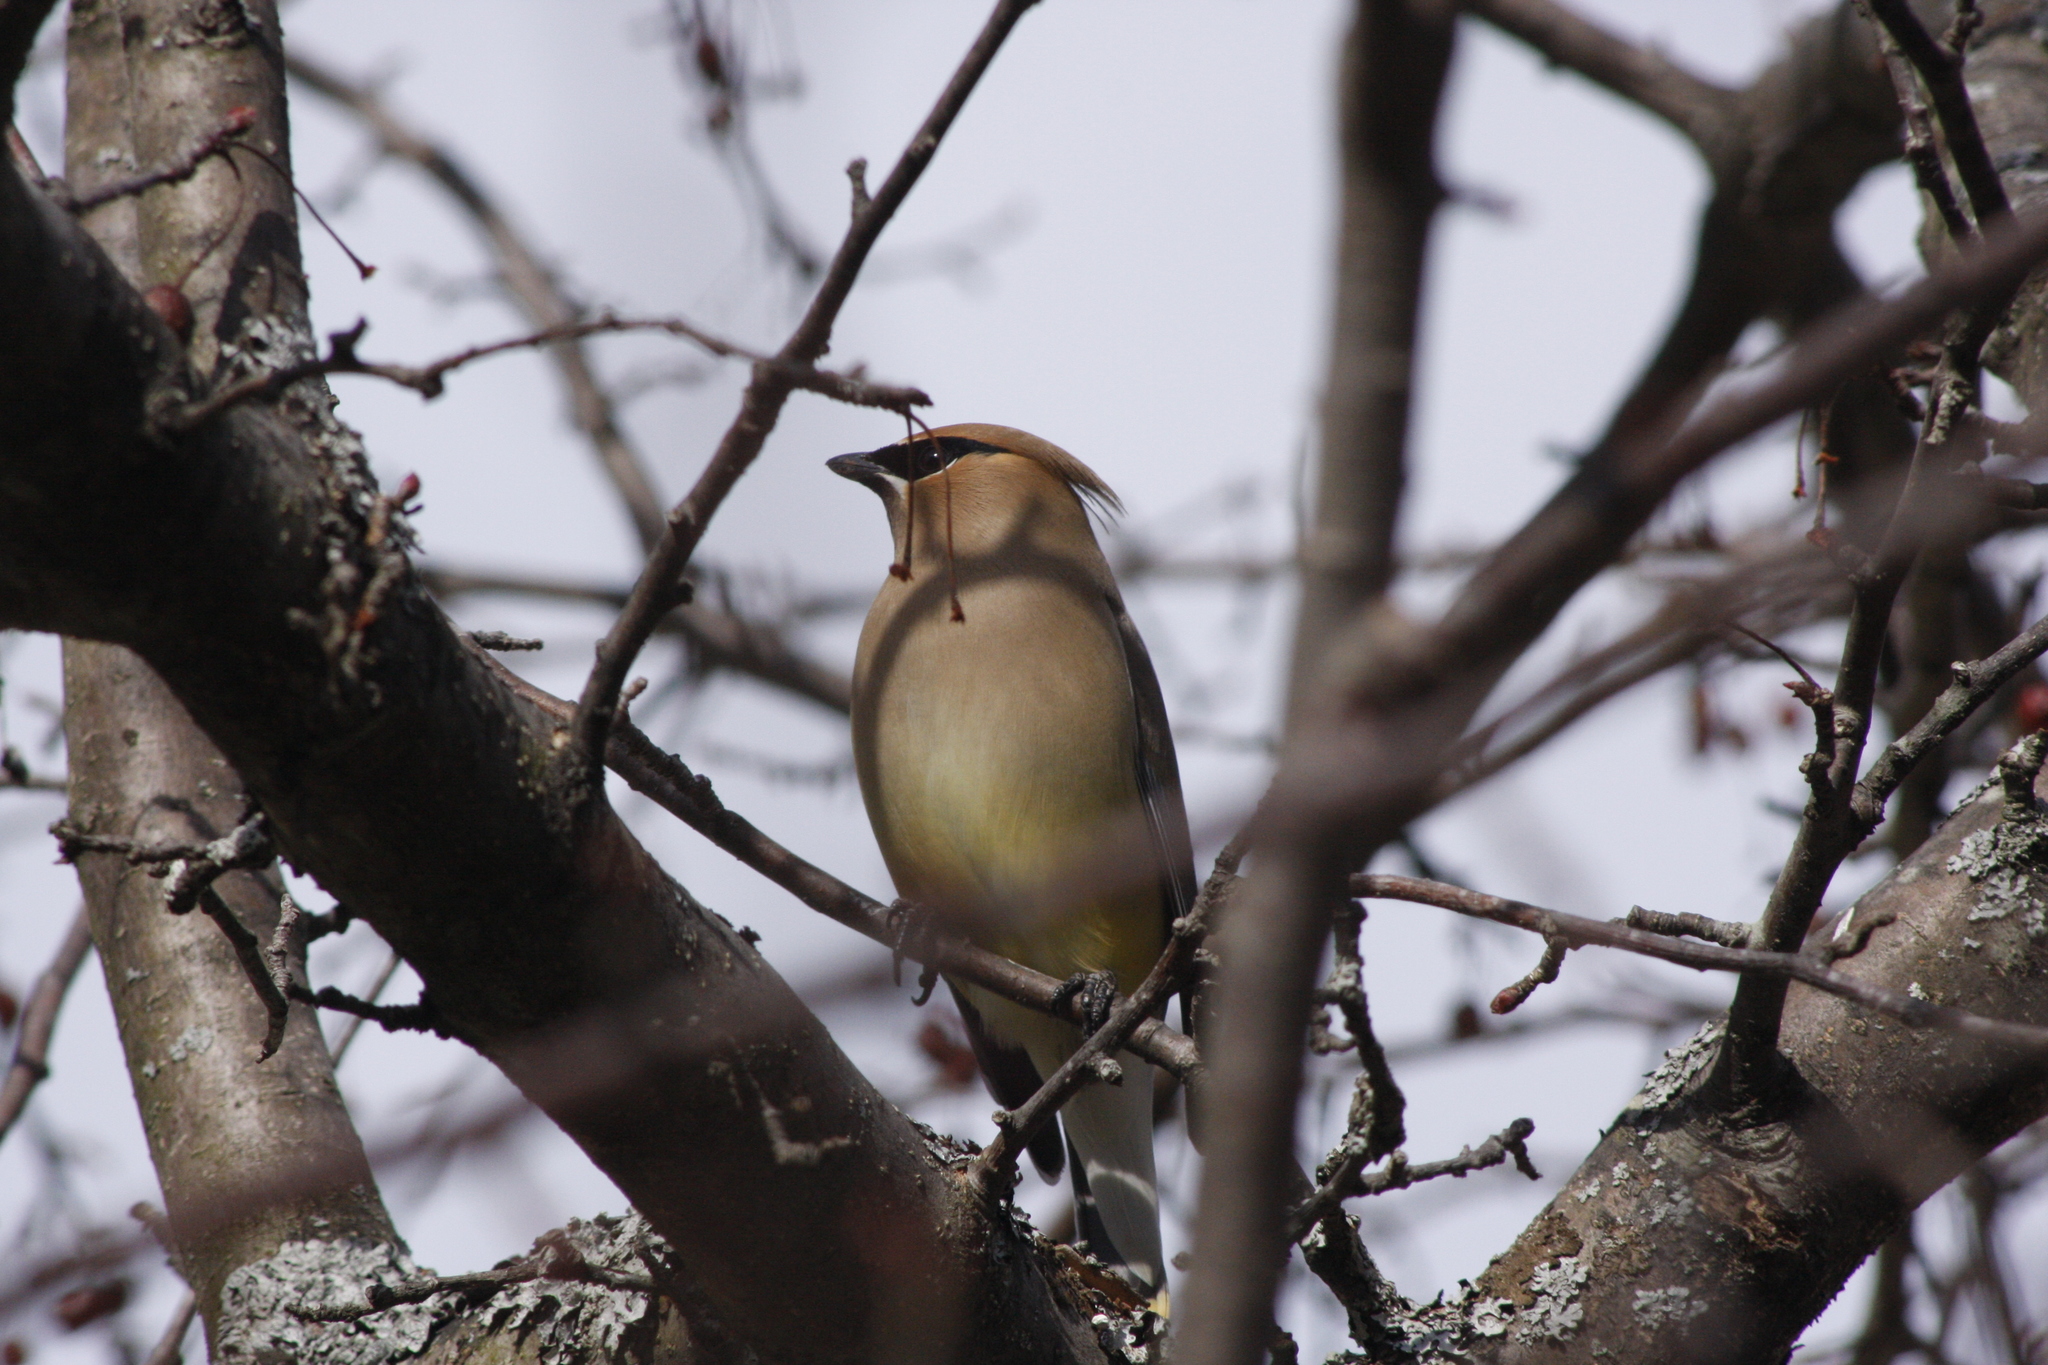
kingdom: Animalia
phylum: Chordata
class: Aves
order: Passeriformes
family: Bombycillidae
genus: Bombycilla
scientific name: Bombycilla cedrorum
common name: Cedar waxwing
